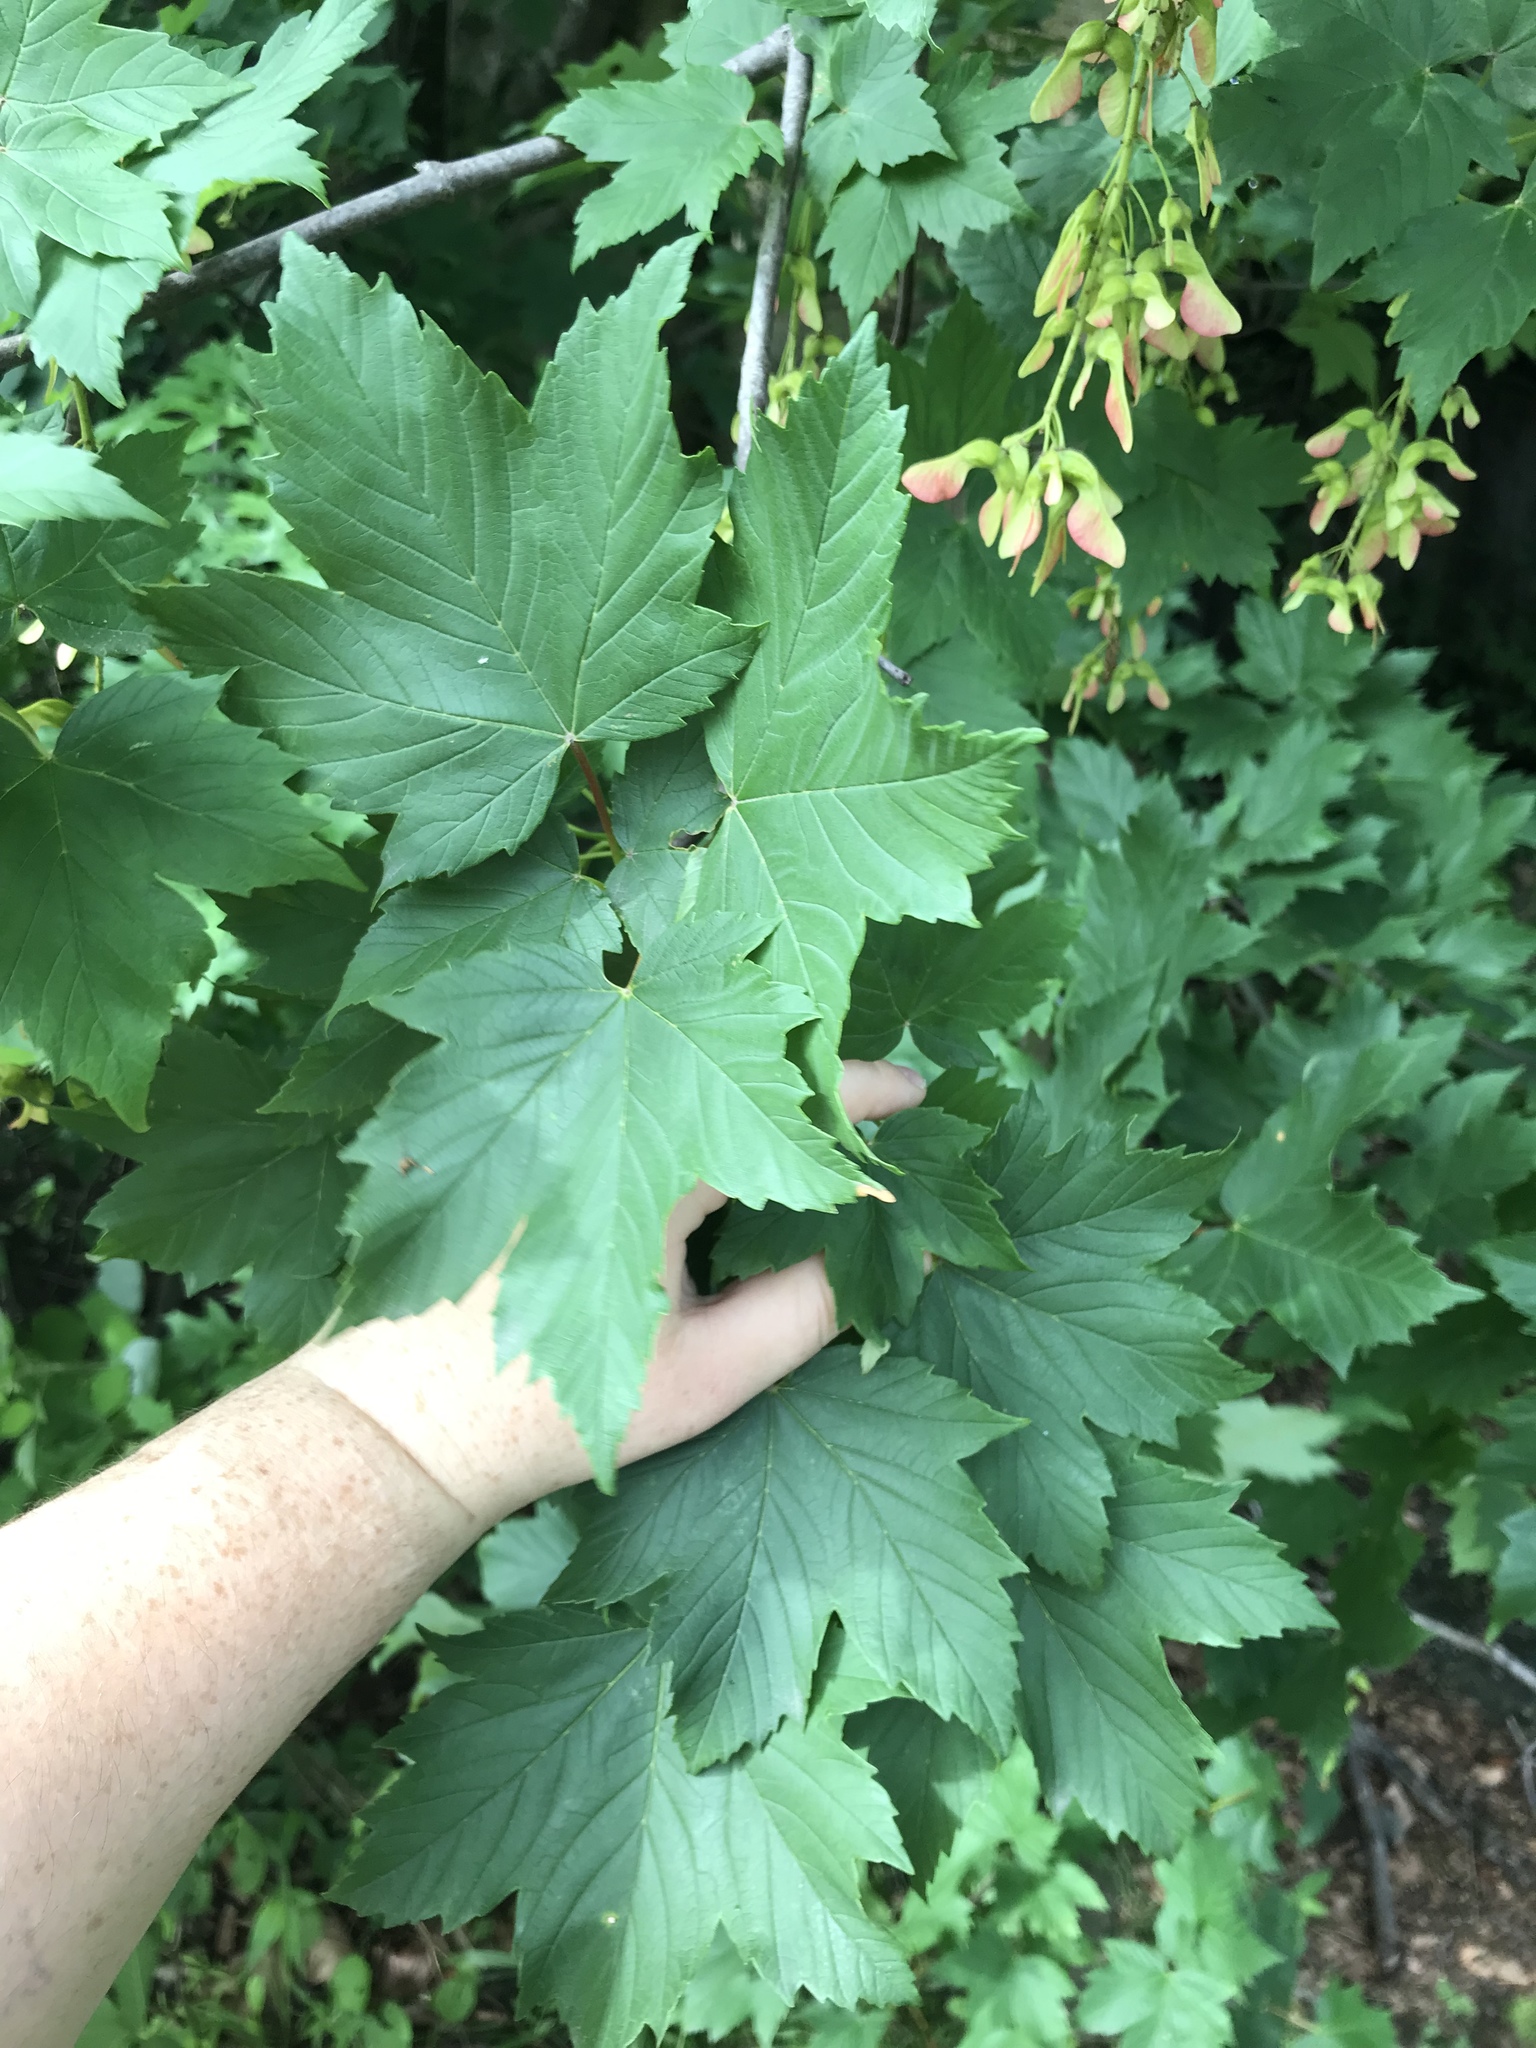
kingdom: Plantae
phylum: Tracheophyta
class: Magnoliopsida
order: Sapindales
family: Sapindaceae
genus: Acer
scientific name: Acer pseudoplatanus
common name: Sycamore
